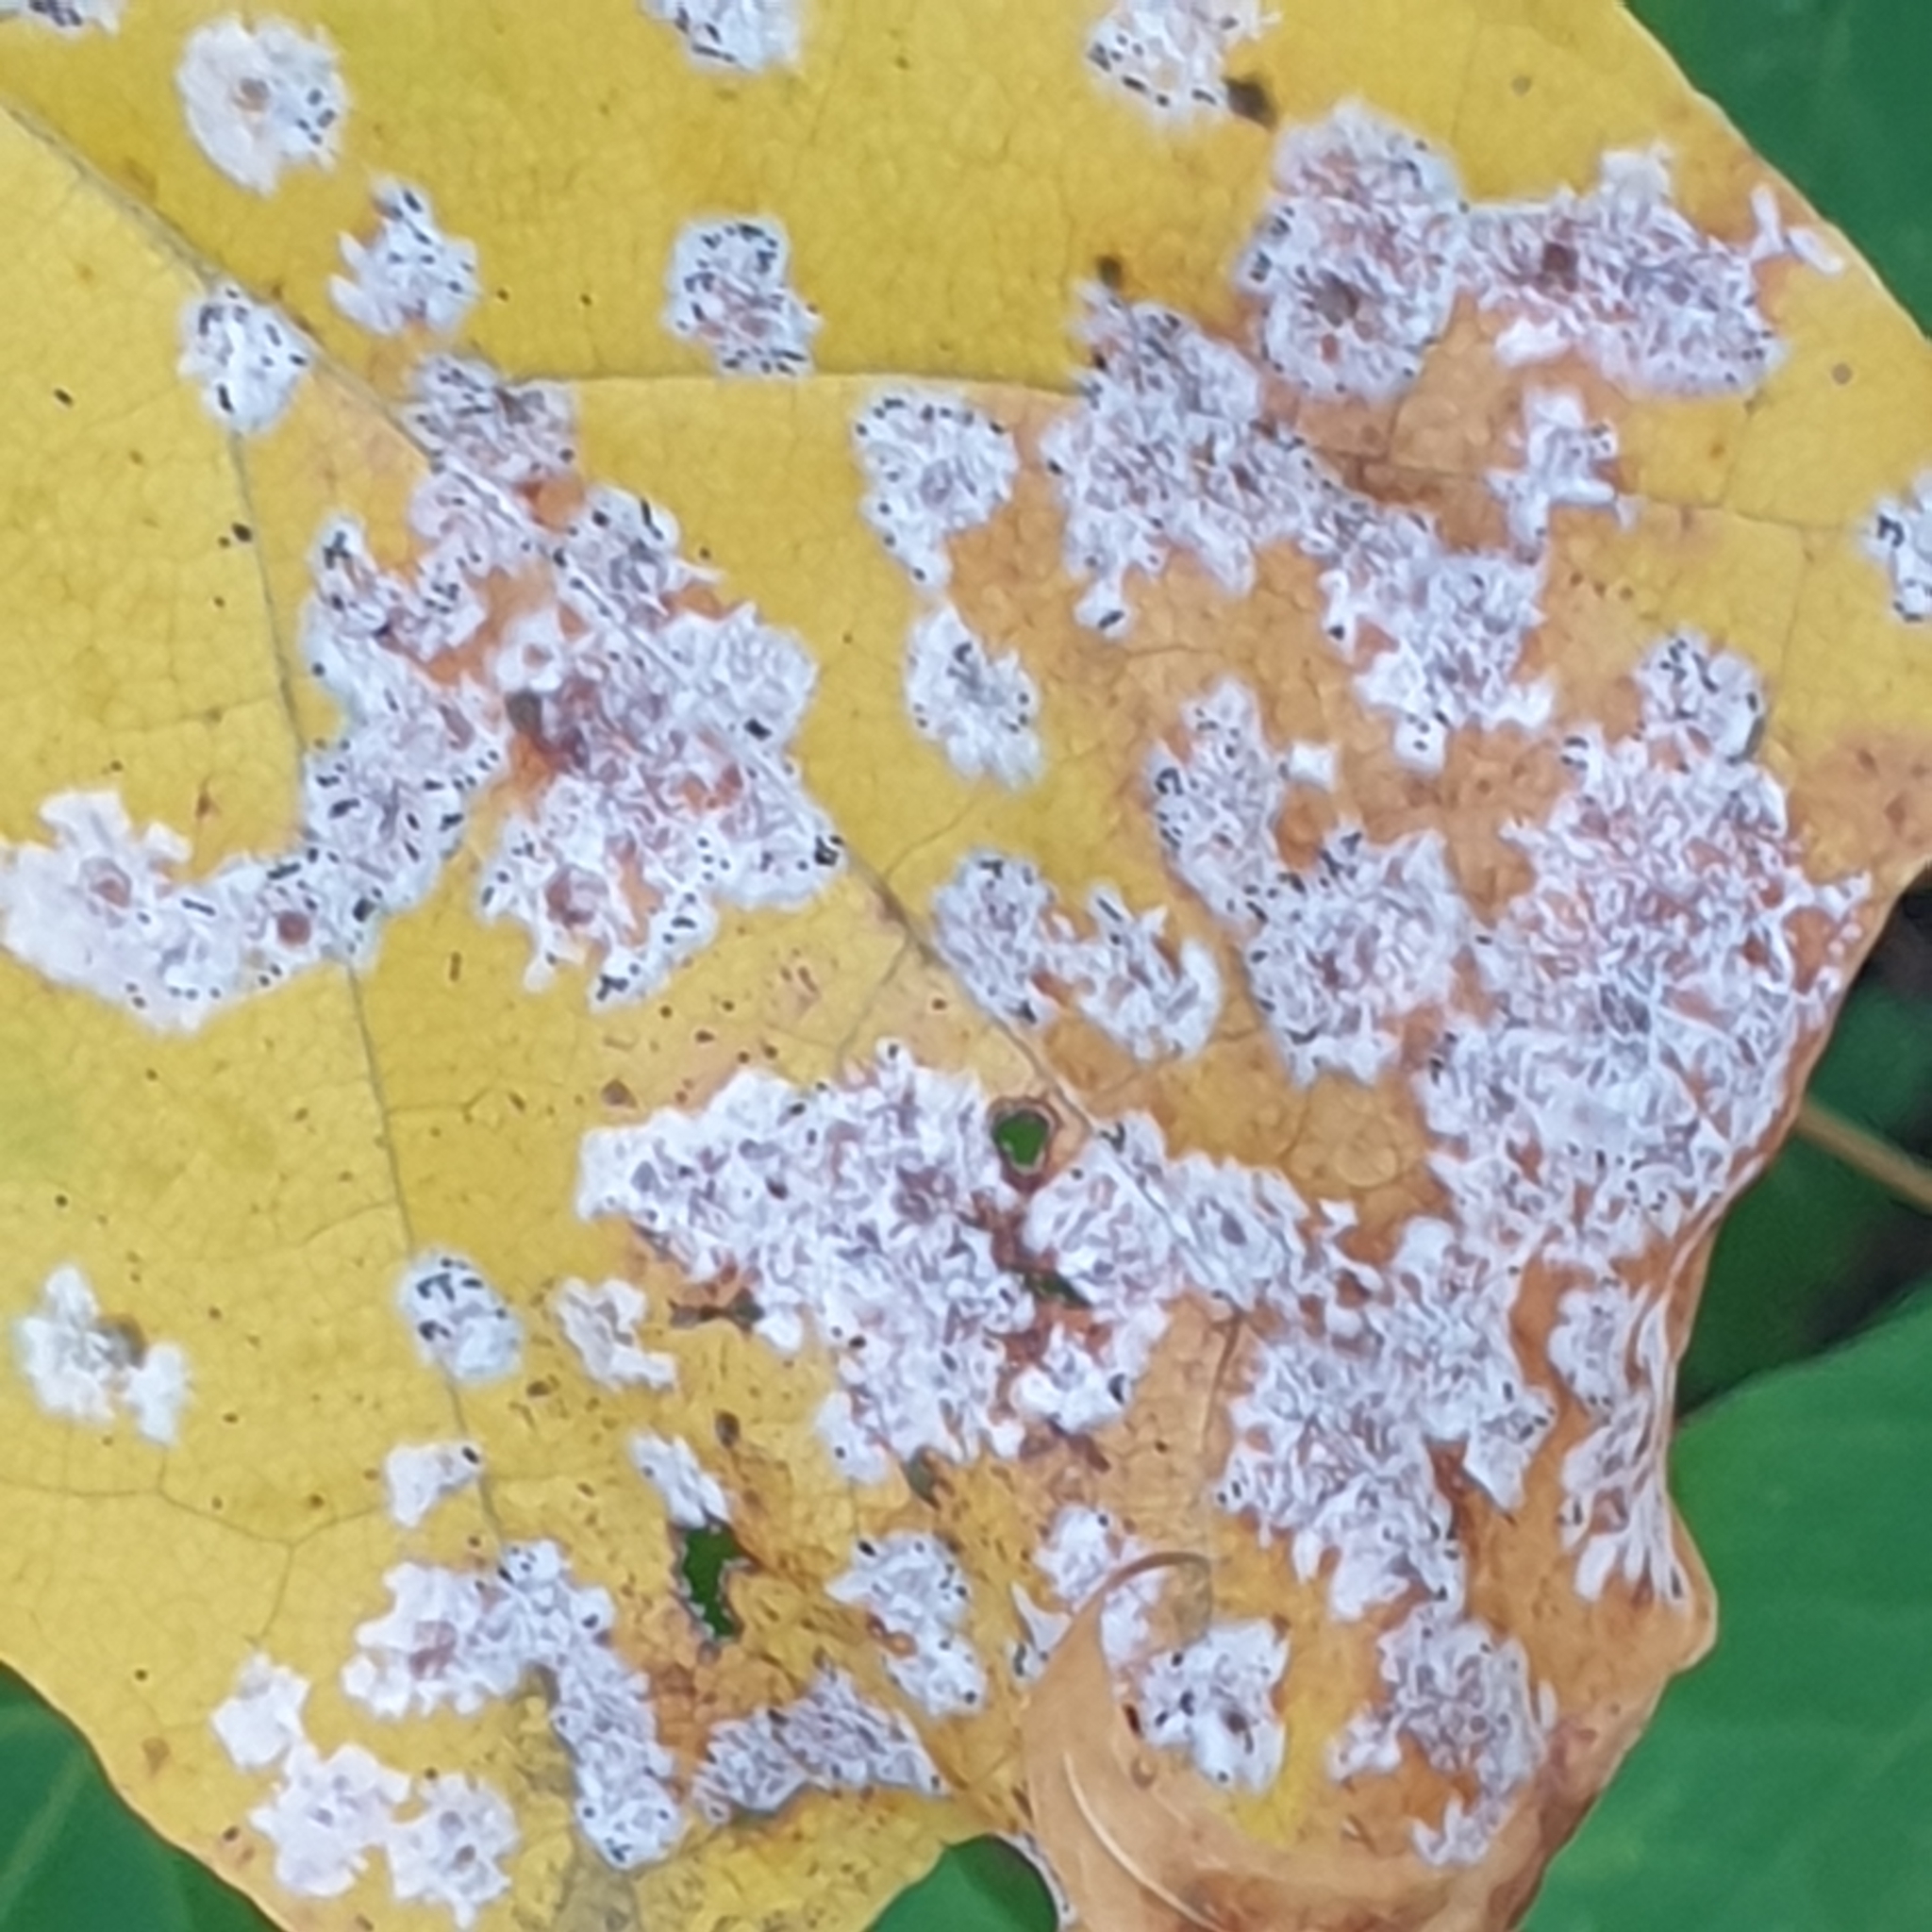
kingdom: Fungi
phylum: Ascomycota
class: Leotiomycetes
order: Helotiales
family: Erysiphaceae
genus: Sawadaea
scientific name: Sawadaea tulasnei
